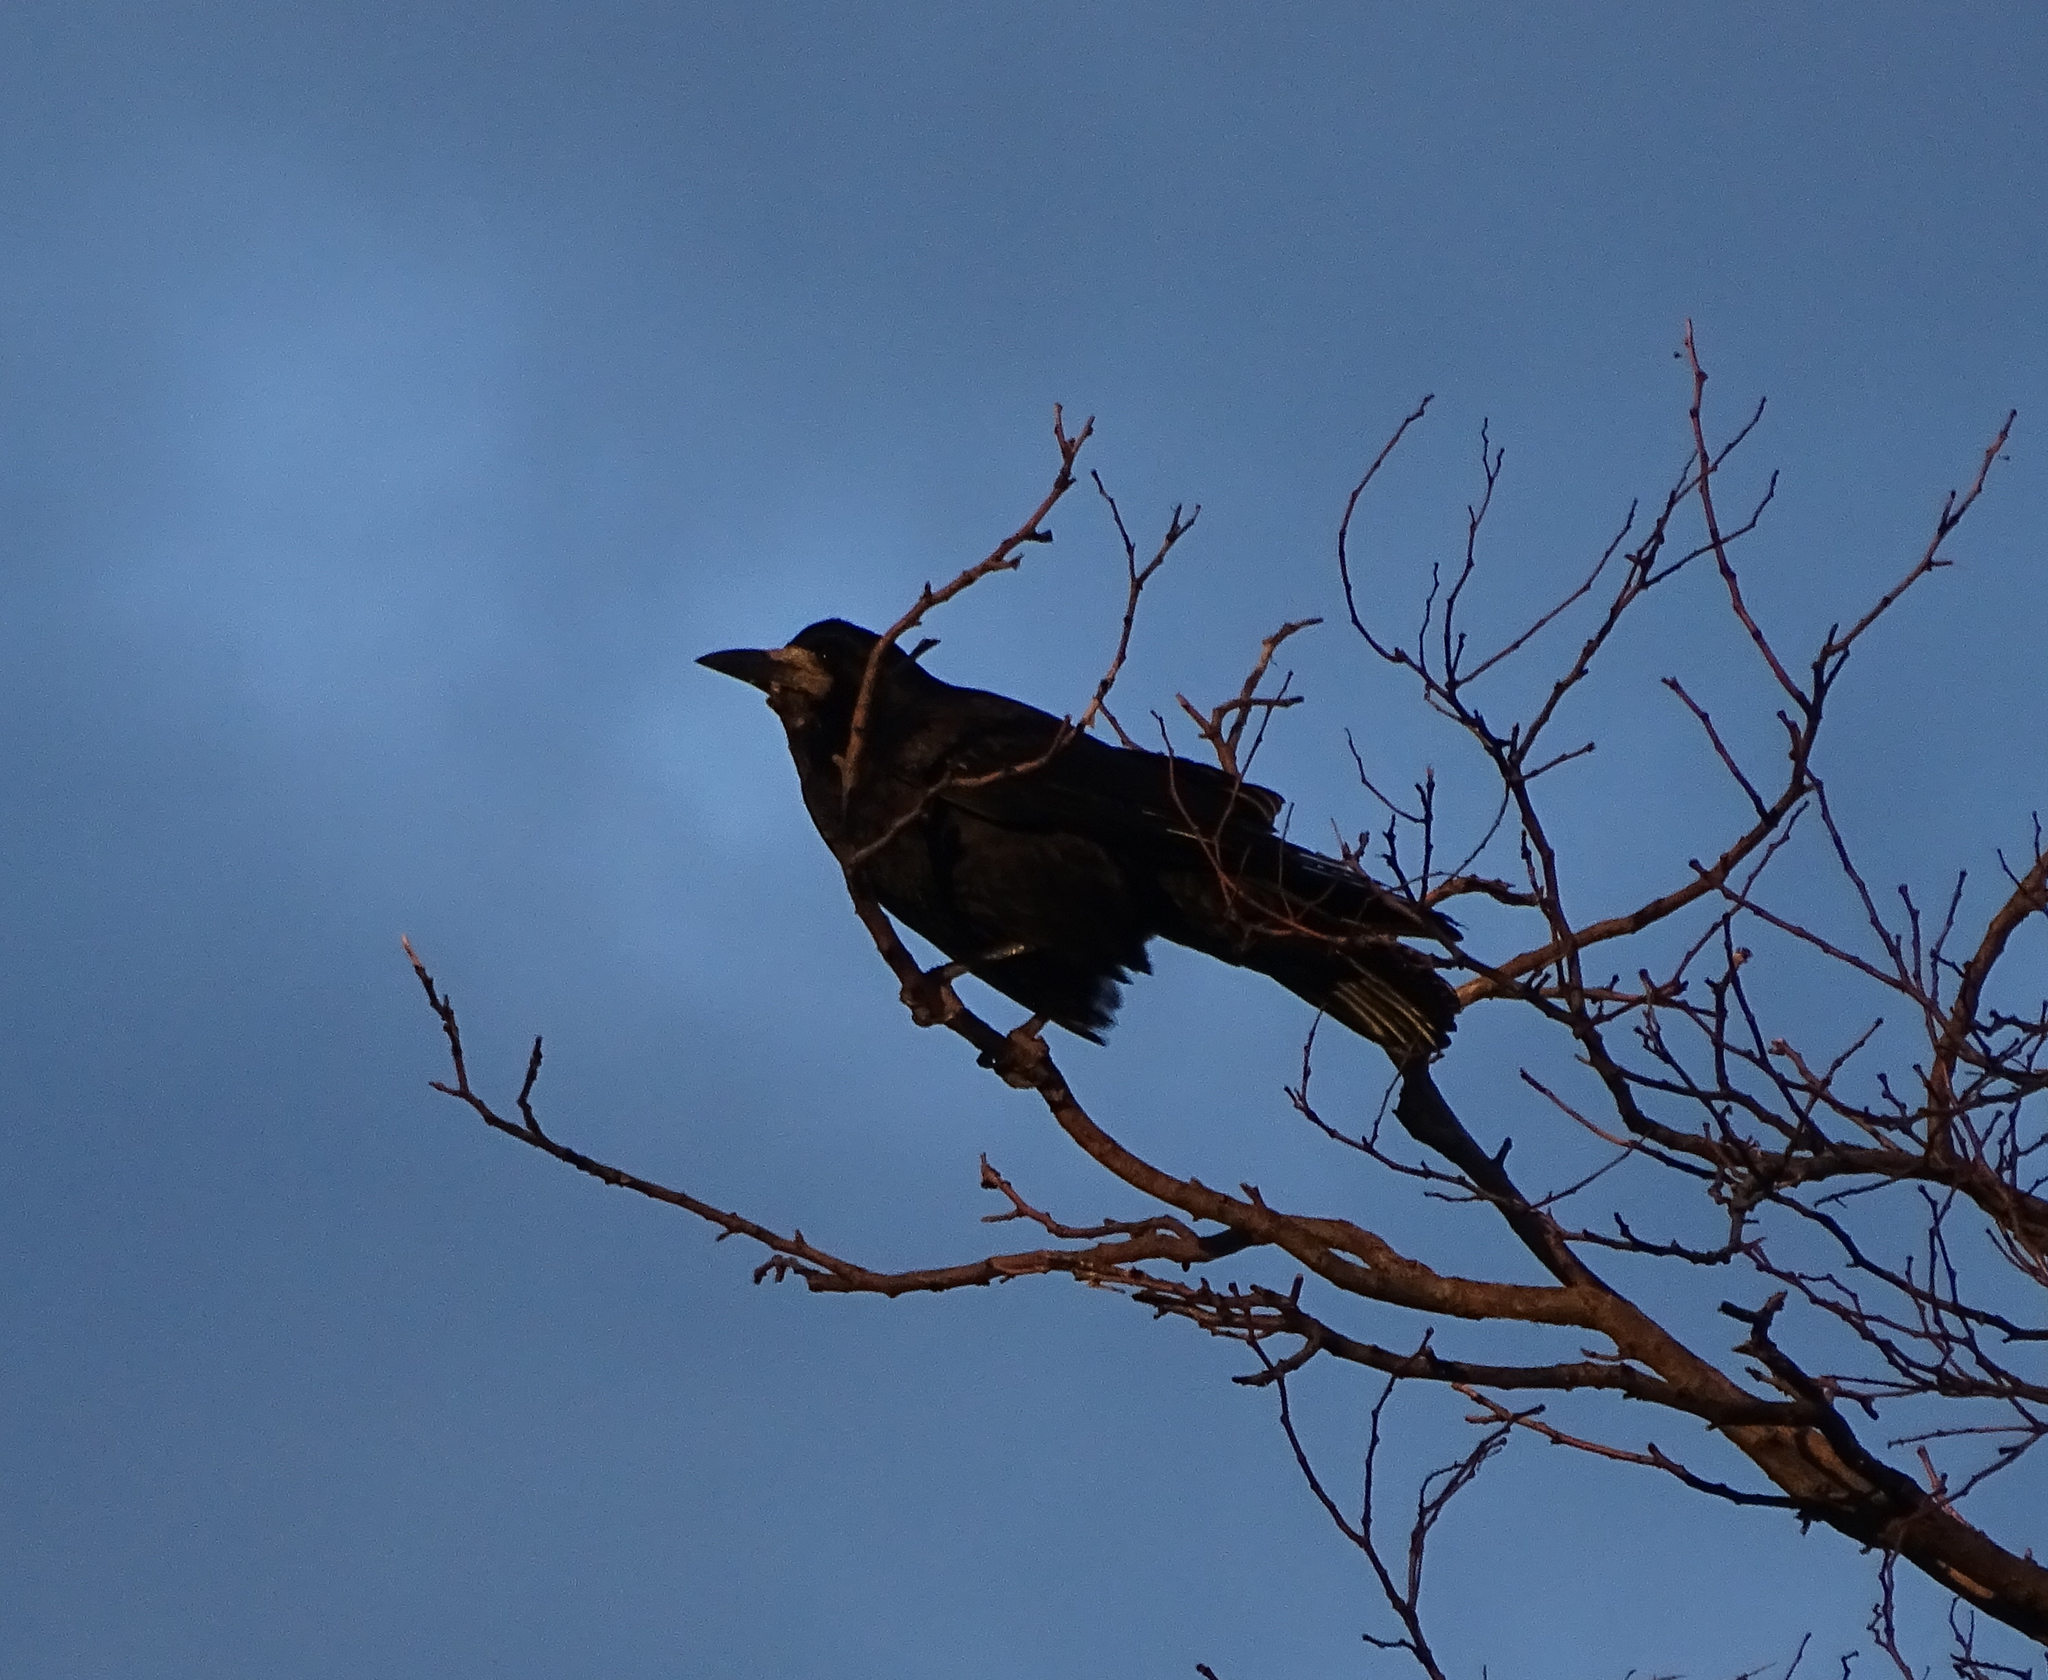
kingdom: Animalia
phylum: Chordata
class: Aves
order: Passeriformes
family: Corvidae
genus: Corvus
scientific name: Corvus frugilegus
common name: Rook
